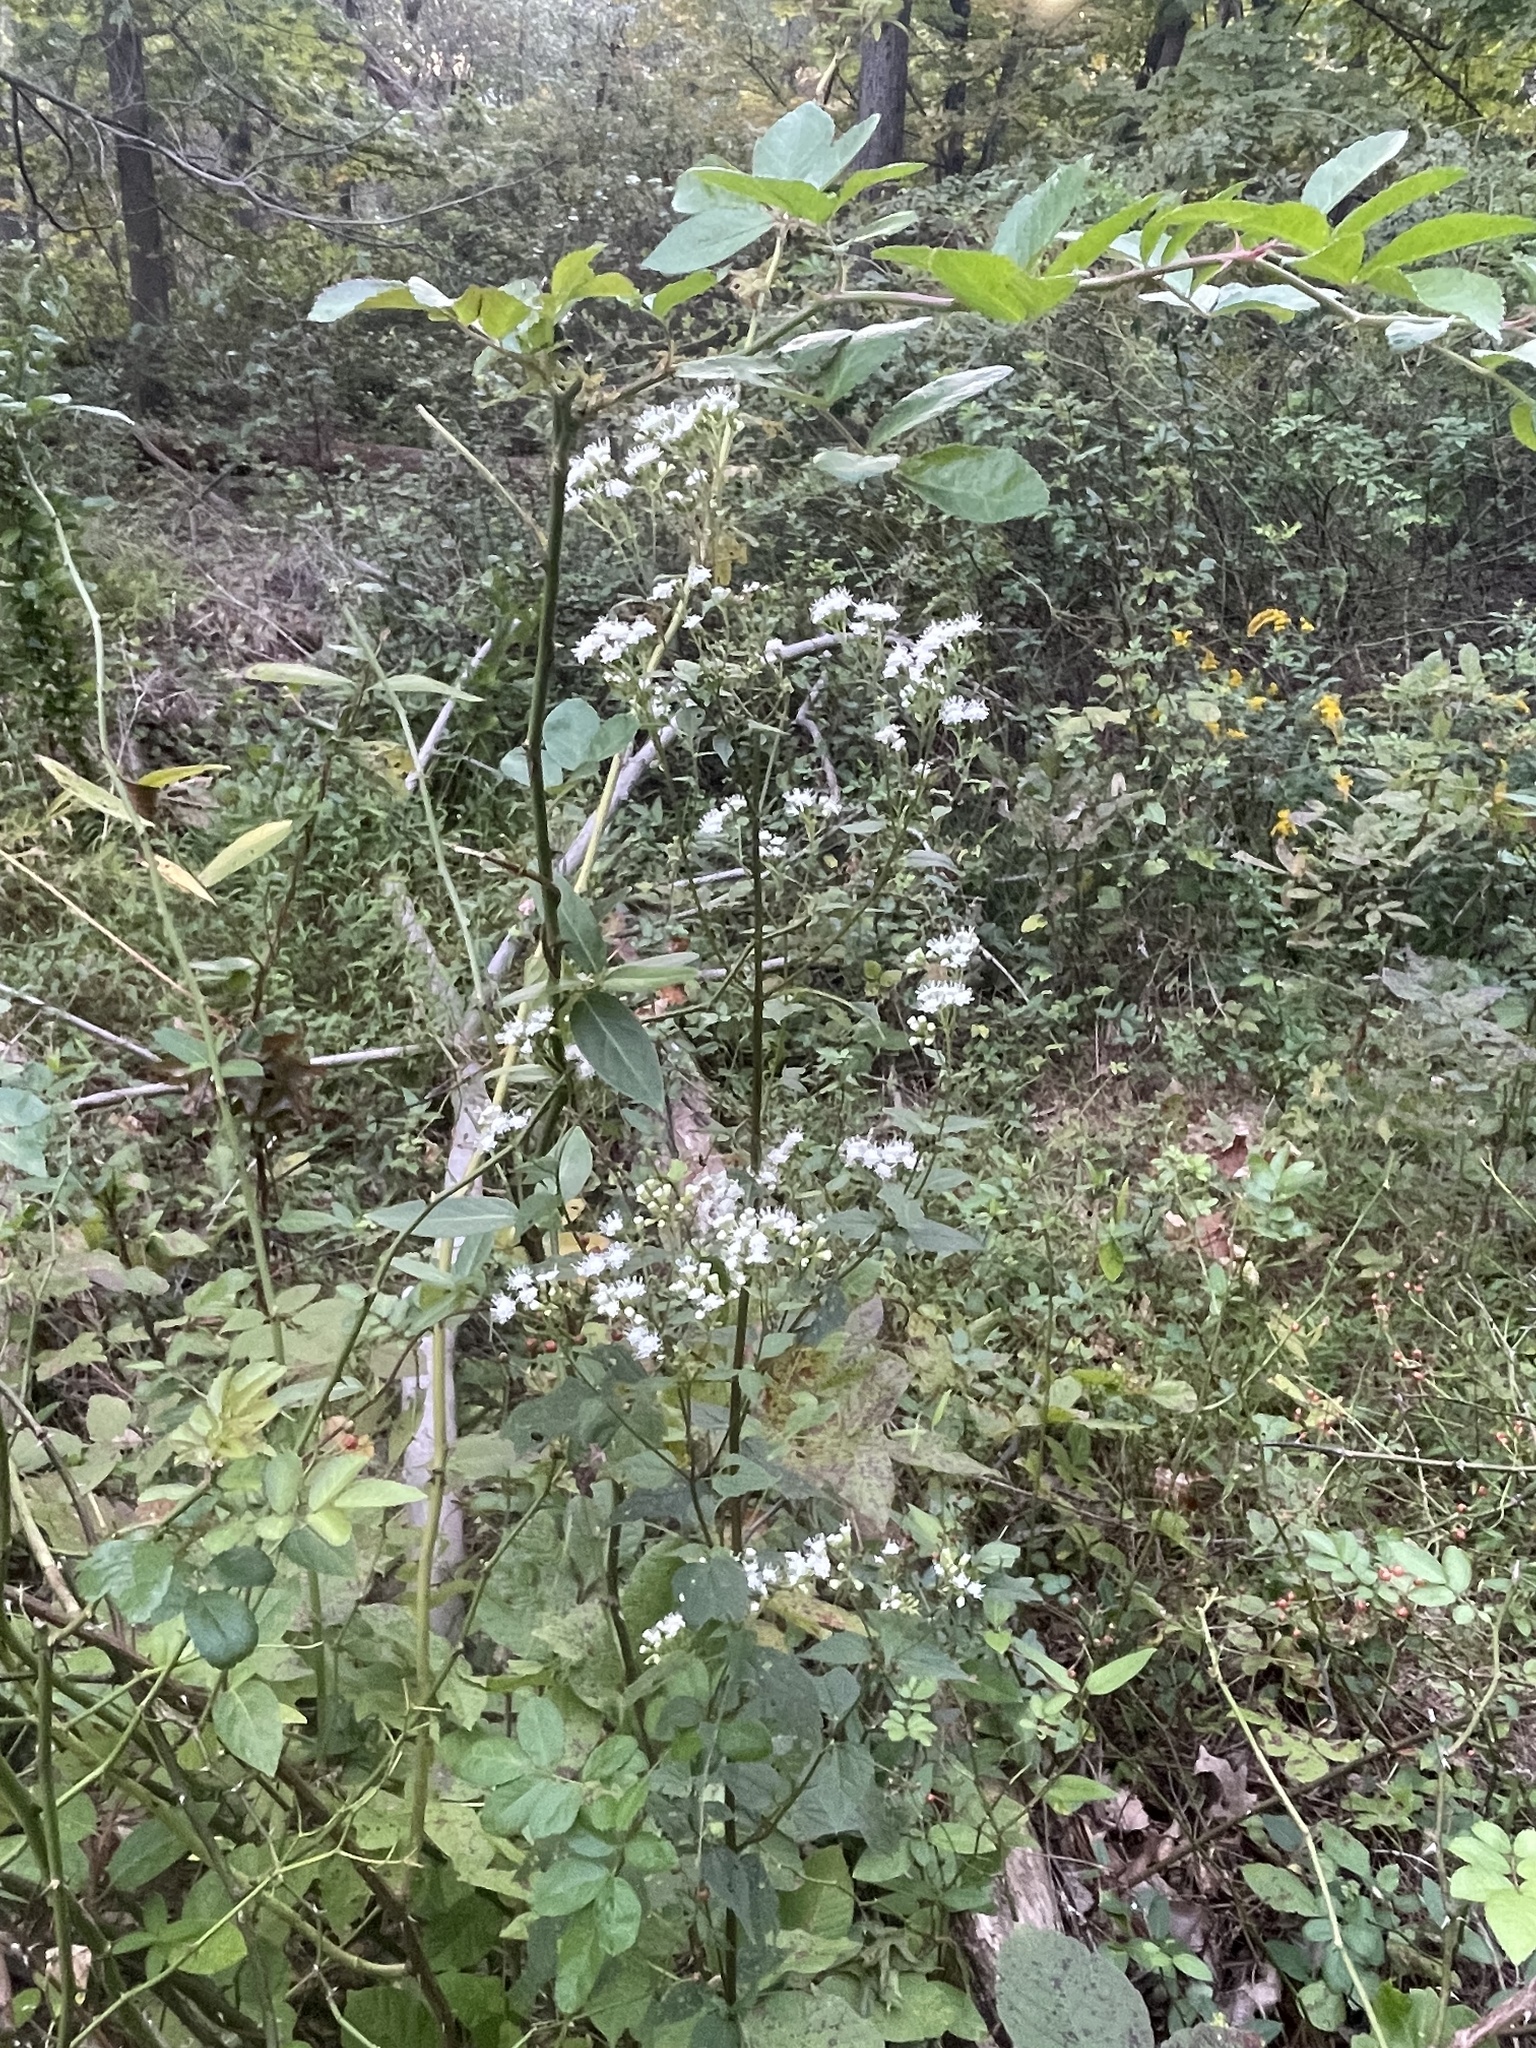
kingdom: Plantae
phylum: Tracheophyta
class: Magnoliopsida
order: Asterales
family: Asteraceae
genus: Ageratina
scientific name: Ageratina altissima
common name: White snakeroot
